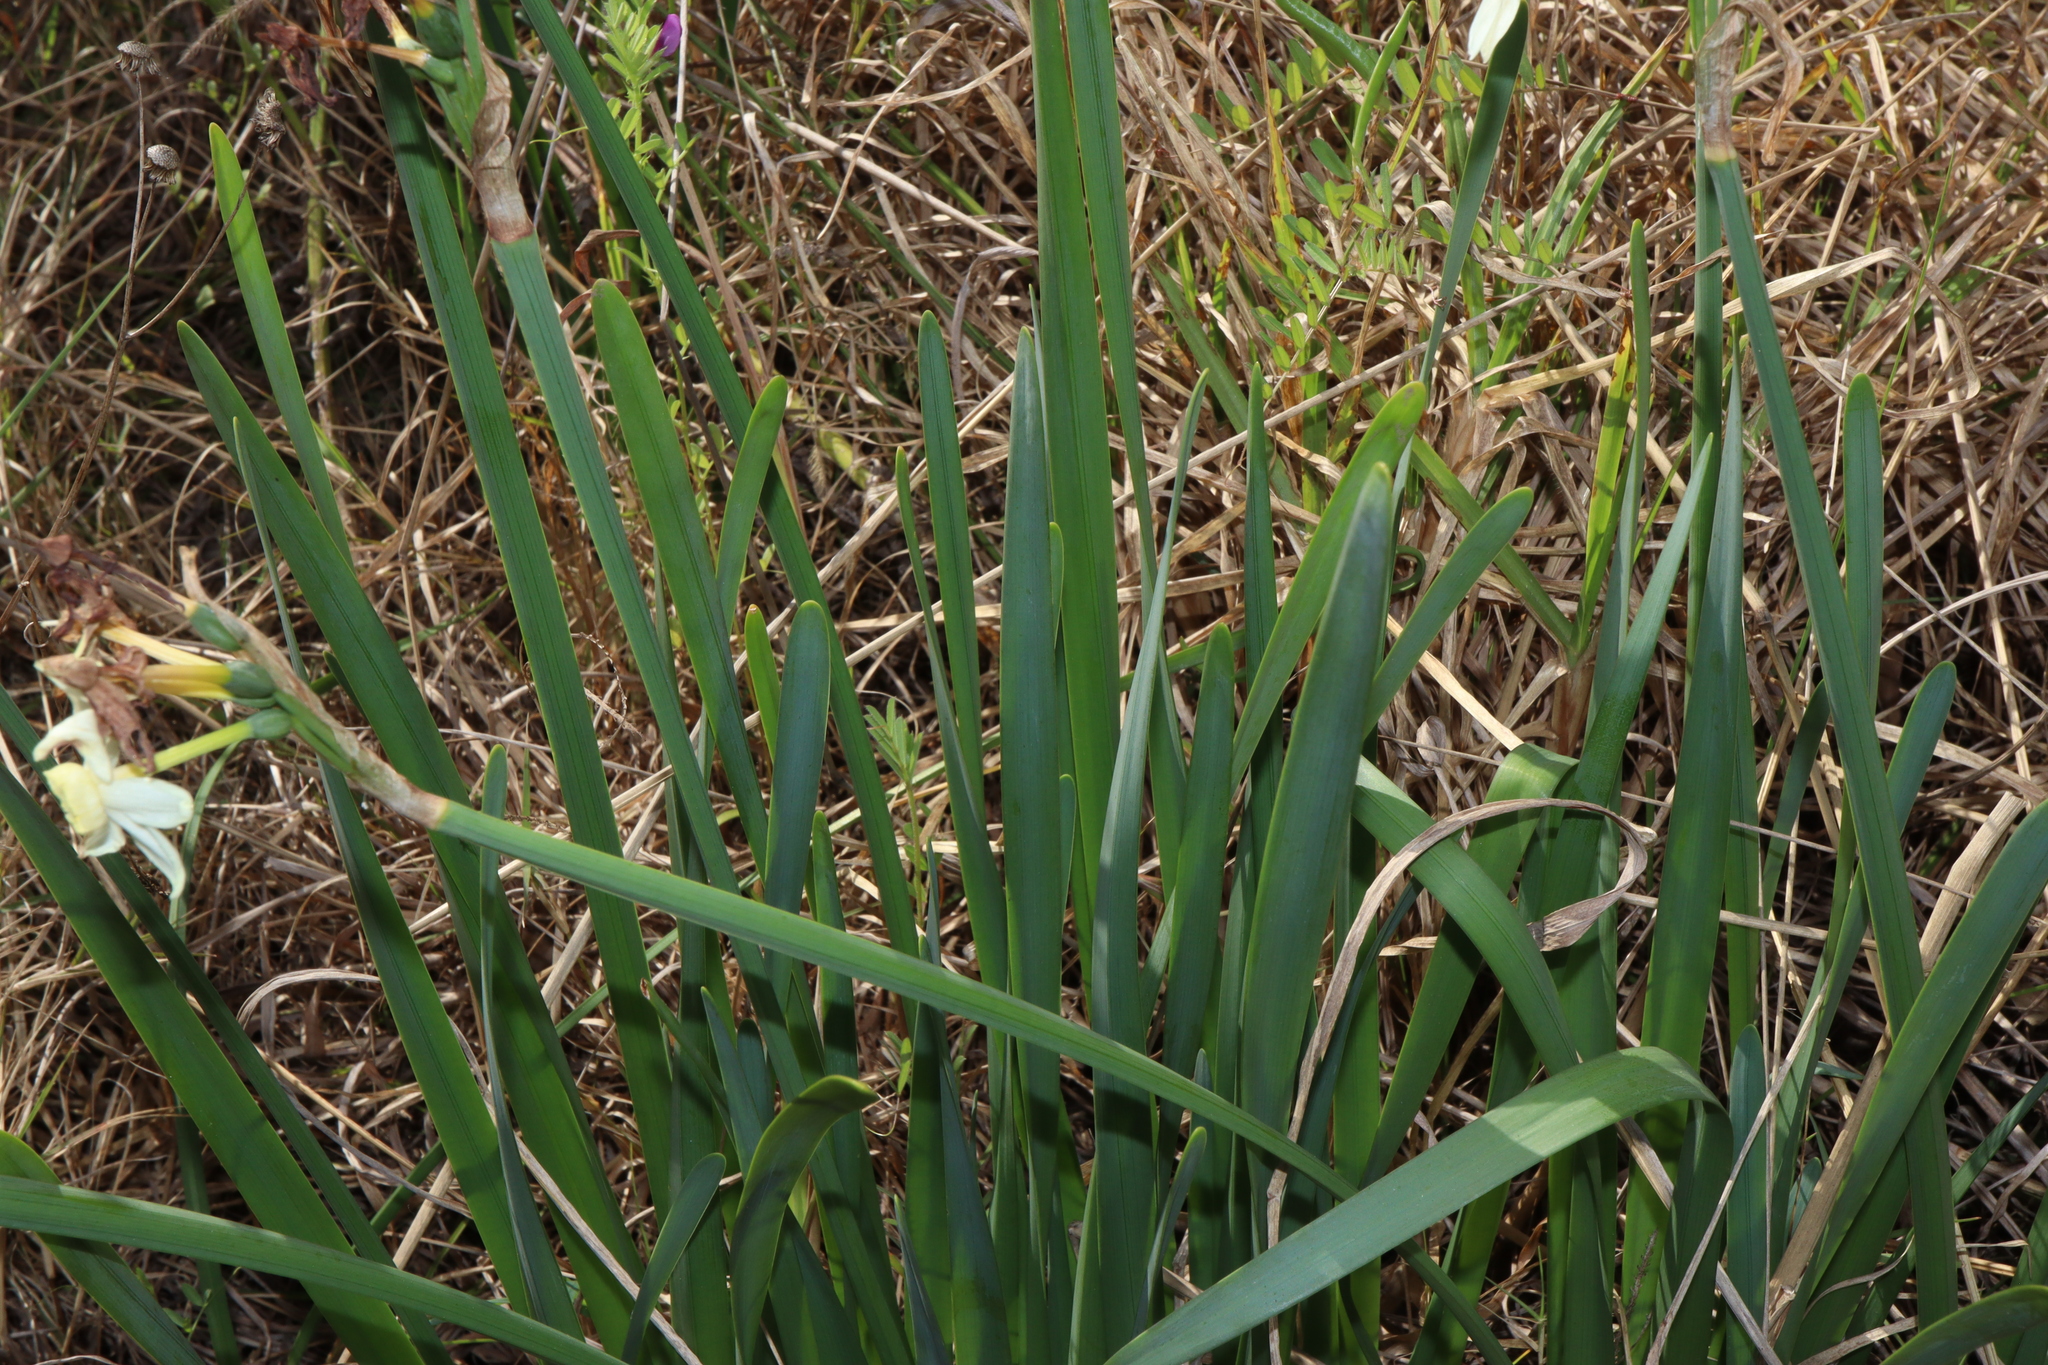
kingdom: Plantae
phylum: Tracheophyta
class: Liliopsida
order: Asparagales
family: Amaryllidaceae
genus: Narcissus
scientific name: Narcissus tazetta
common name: Bunch-flowered daffodil
